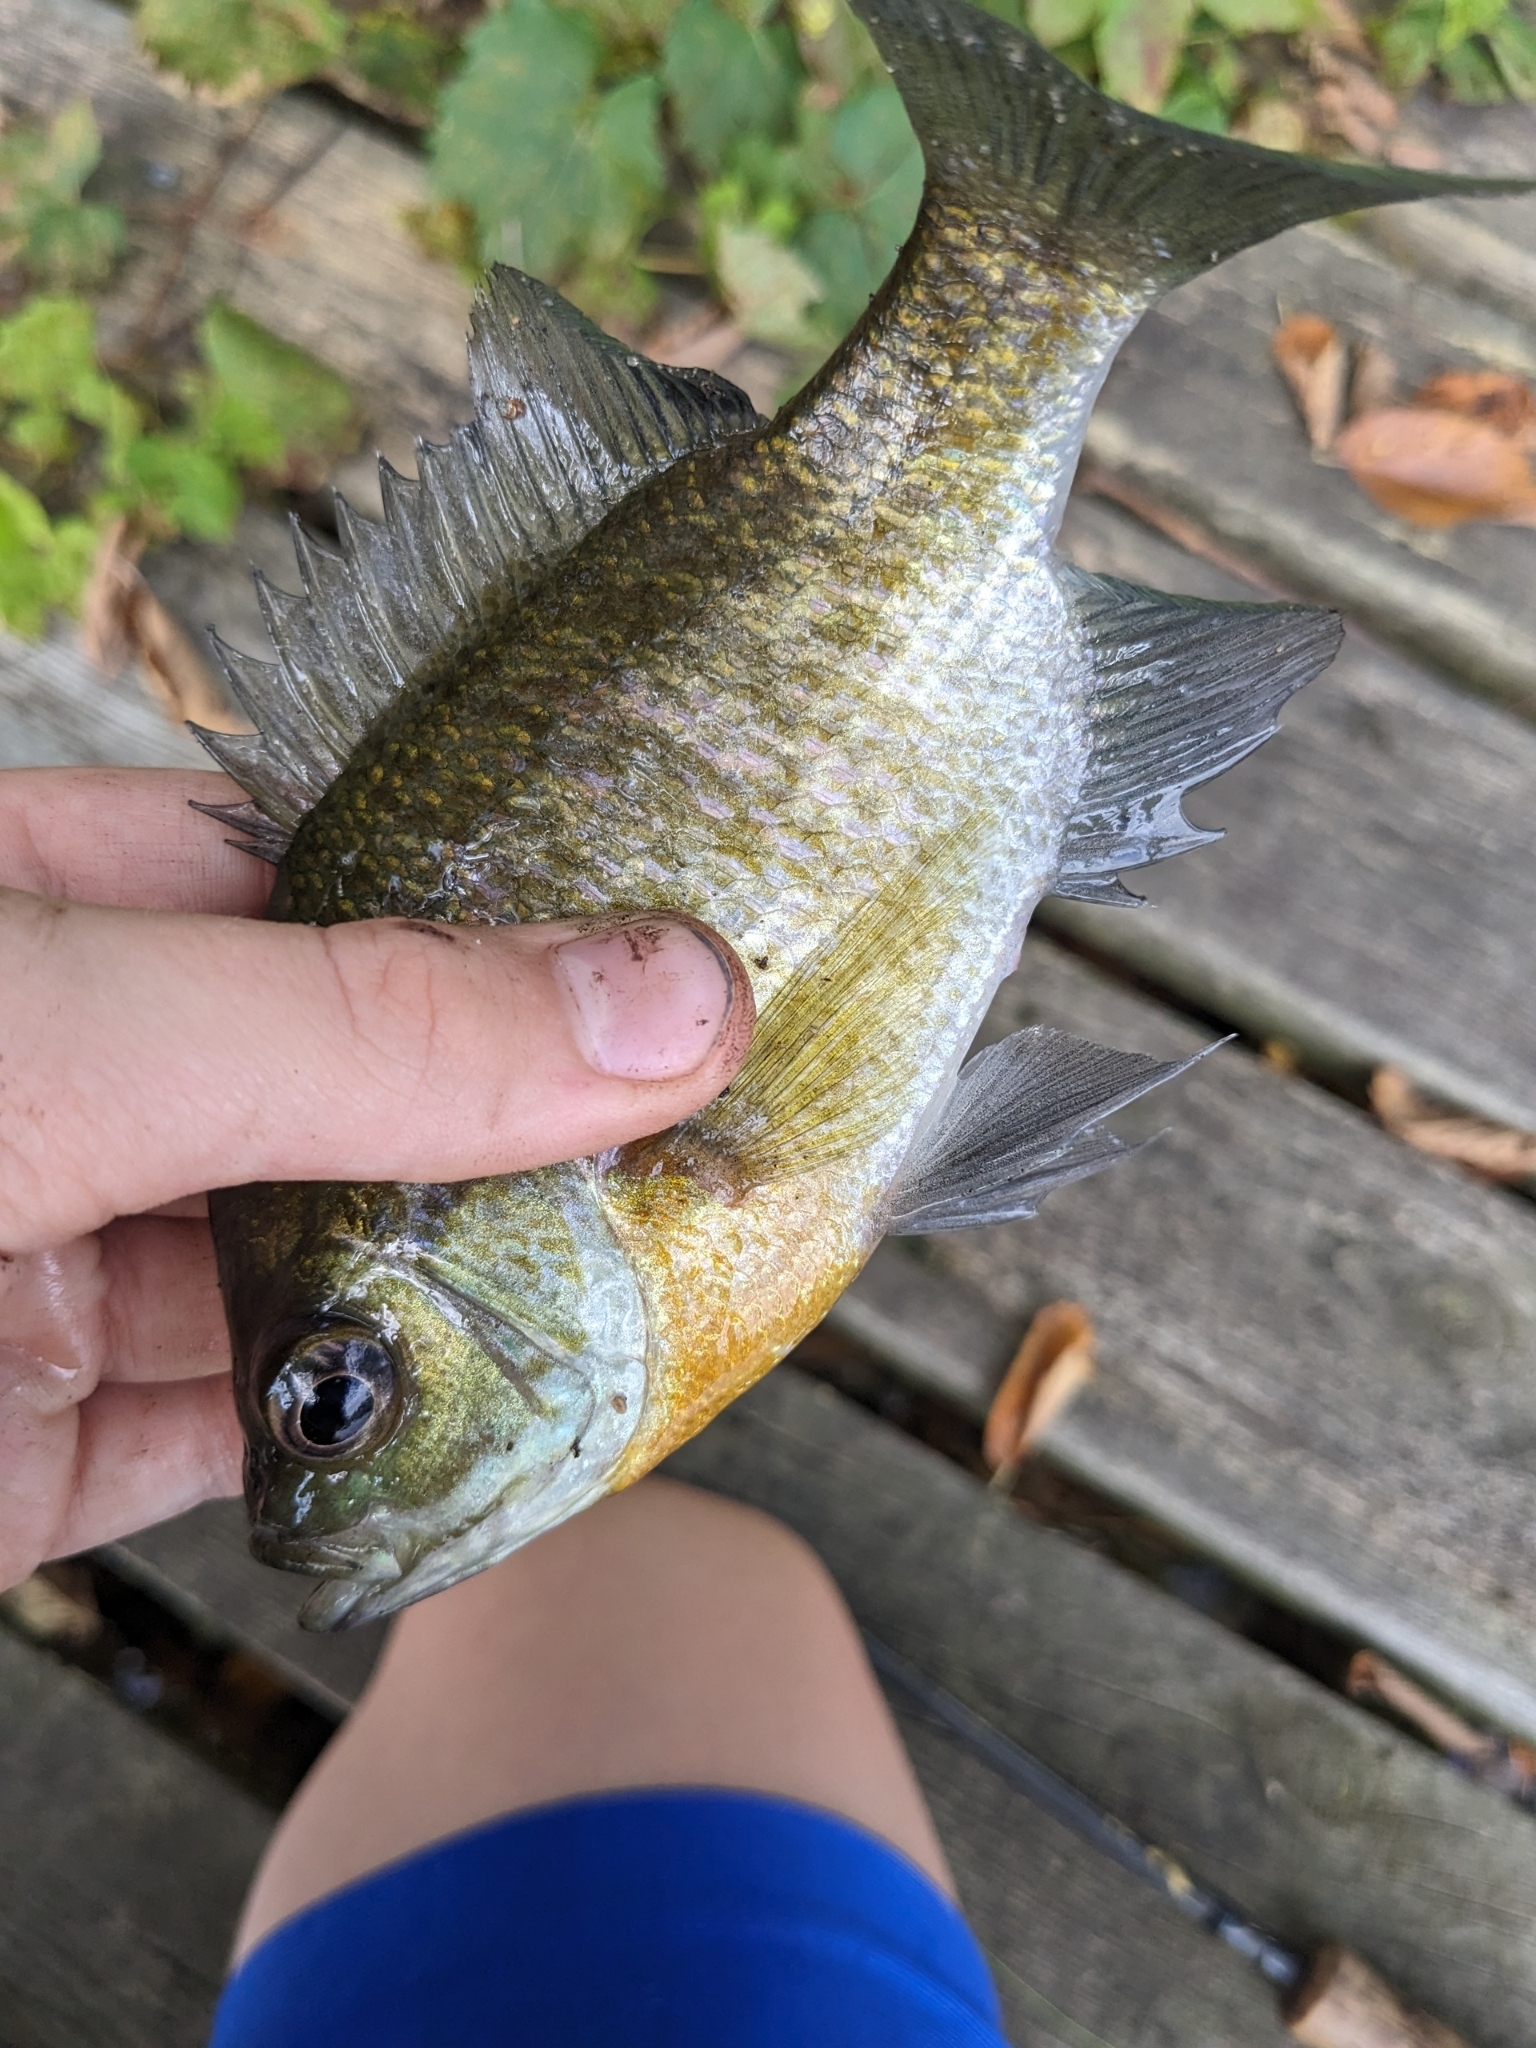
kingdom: Animalia
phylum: Chordata
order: Perciformes
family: Centrarchidae
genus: Lepomis
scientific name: Lepomis macrochirus
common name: Bluegill
